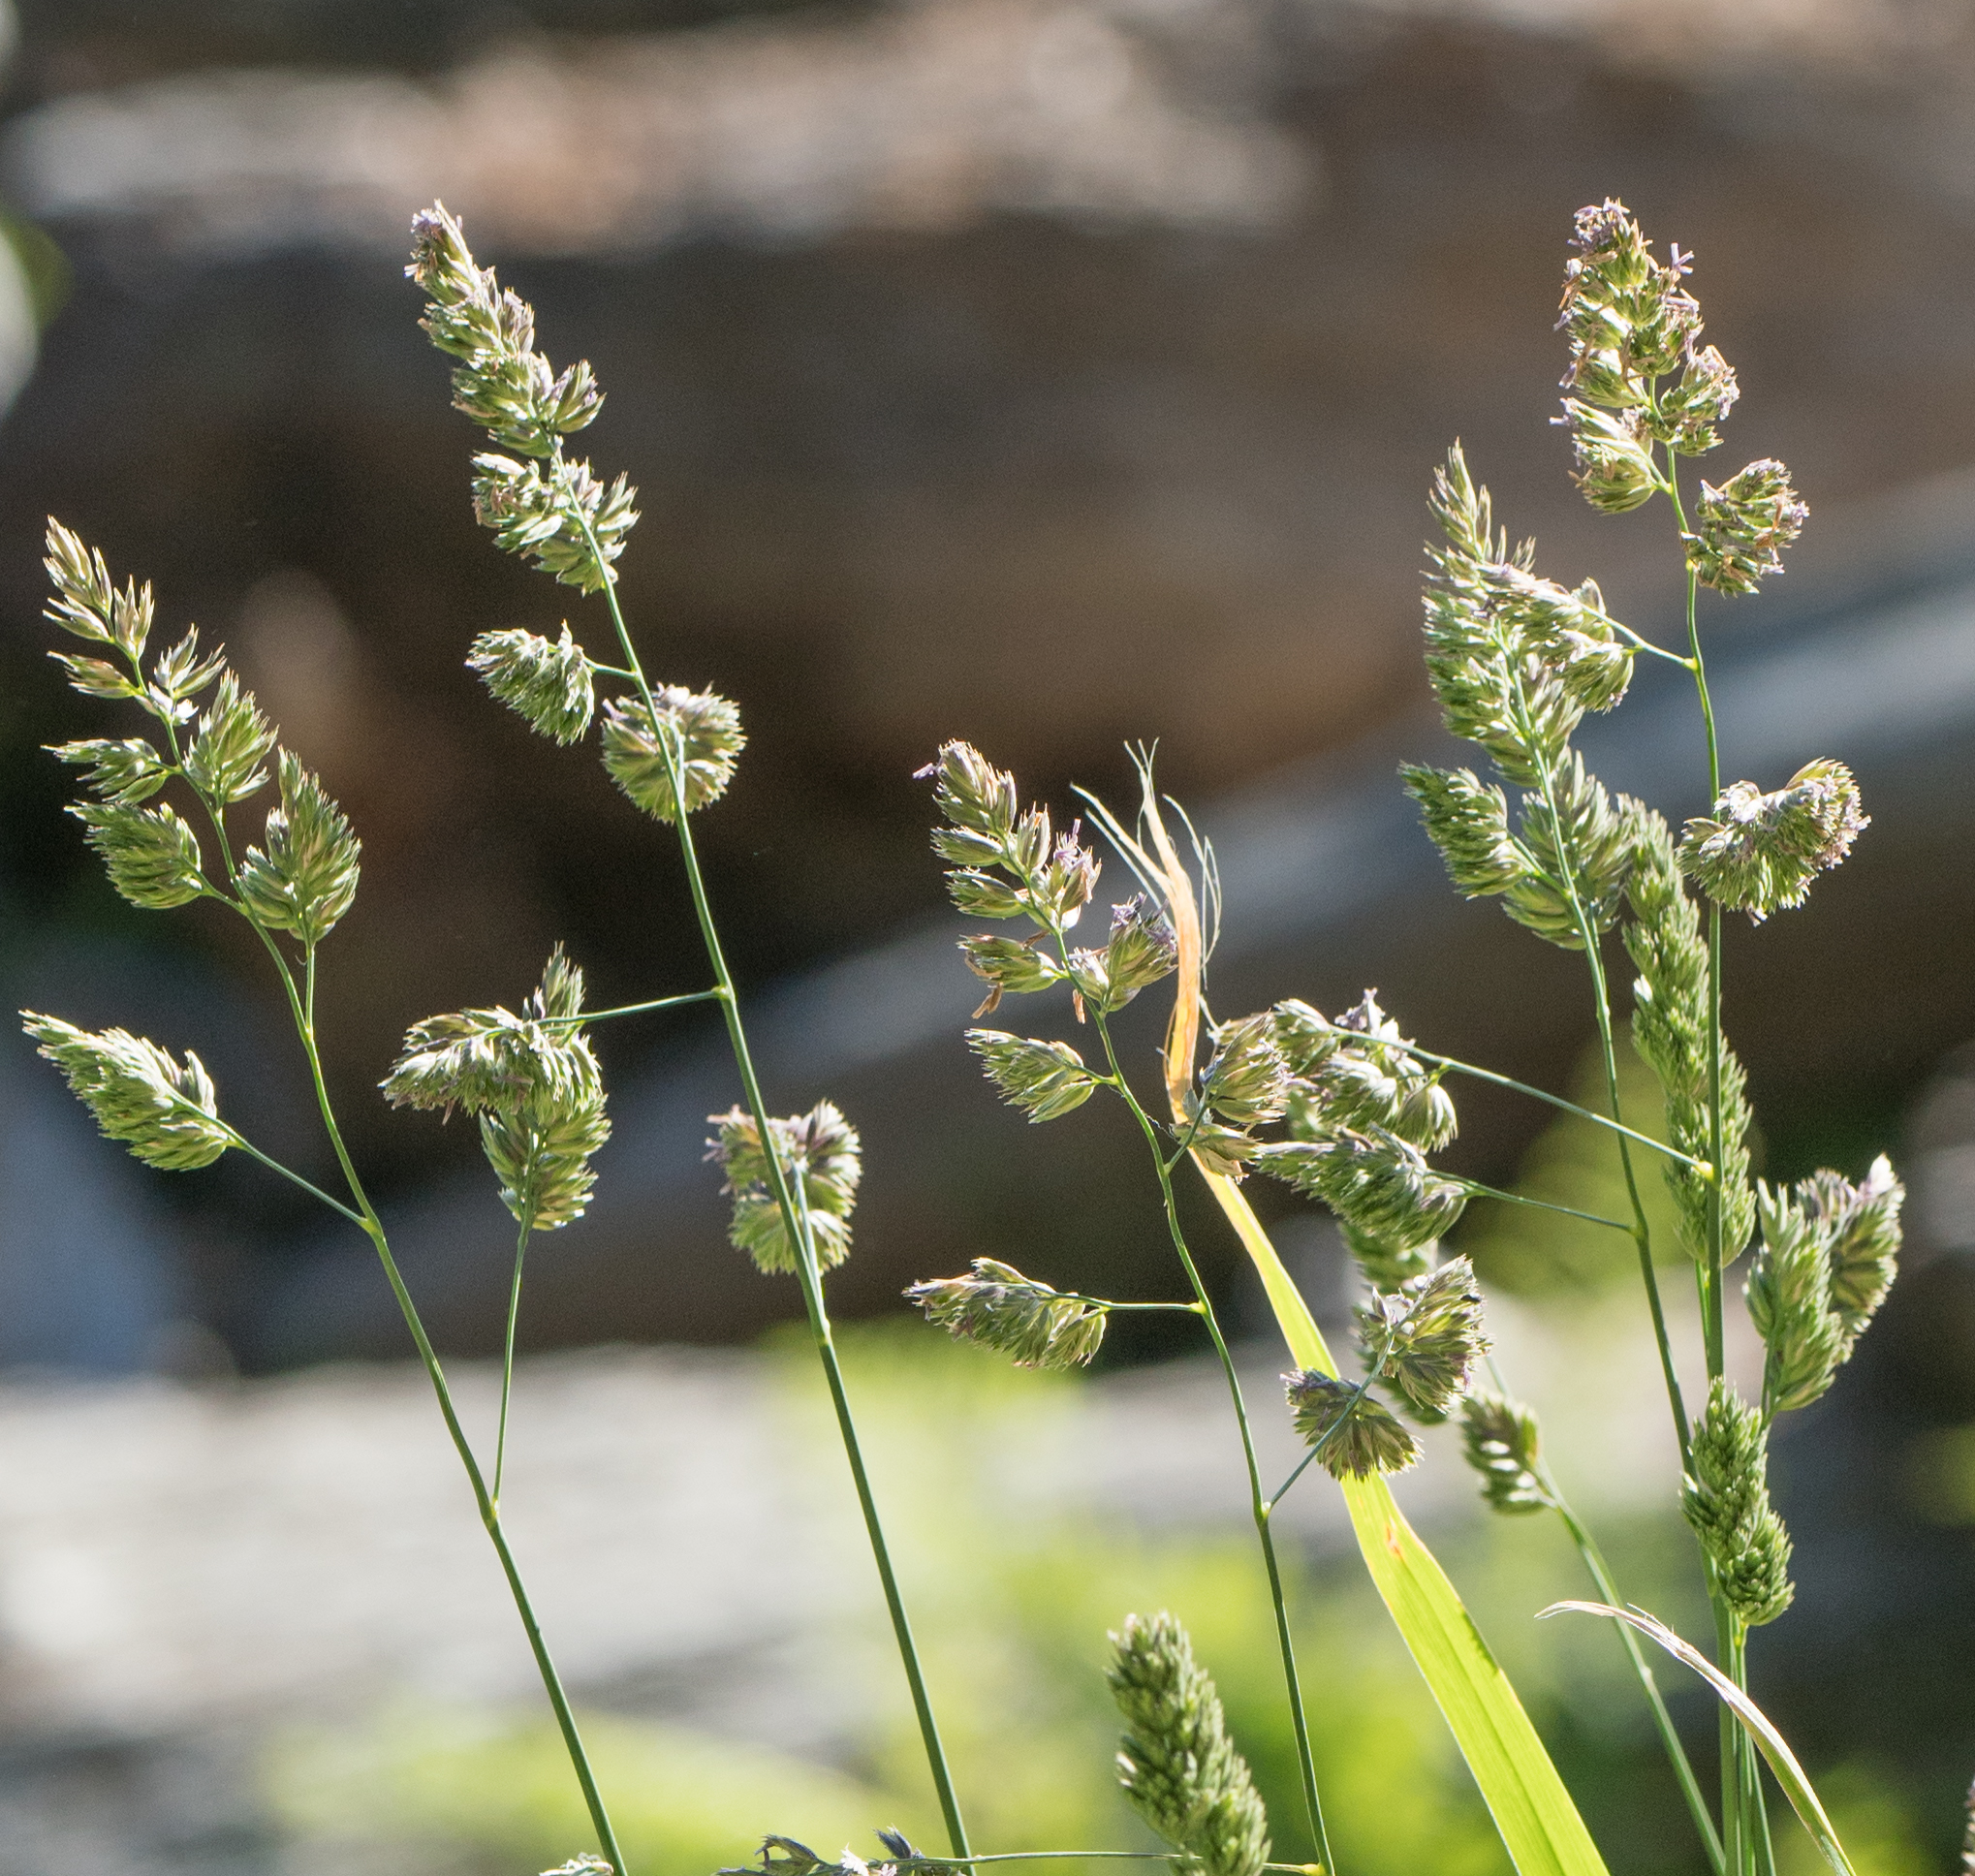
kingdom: Plantae
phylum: Tracheophyta
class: Liliopsida
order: Poales
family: Poaceae
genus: Dactylis
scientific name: Dactylis glomerata
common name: Orchardgrass
